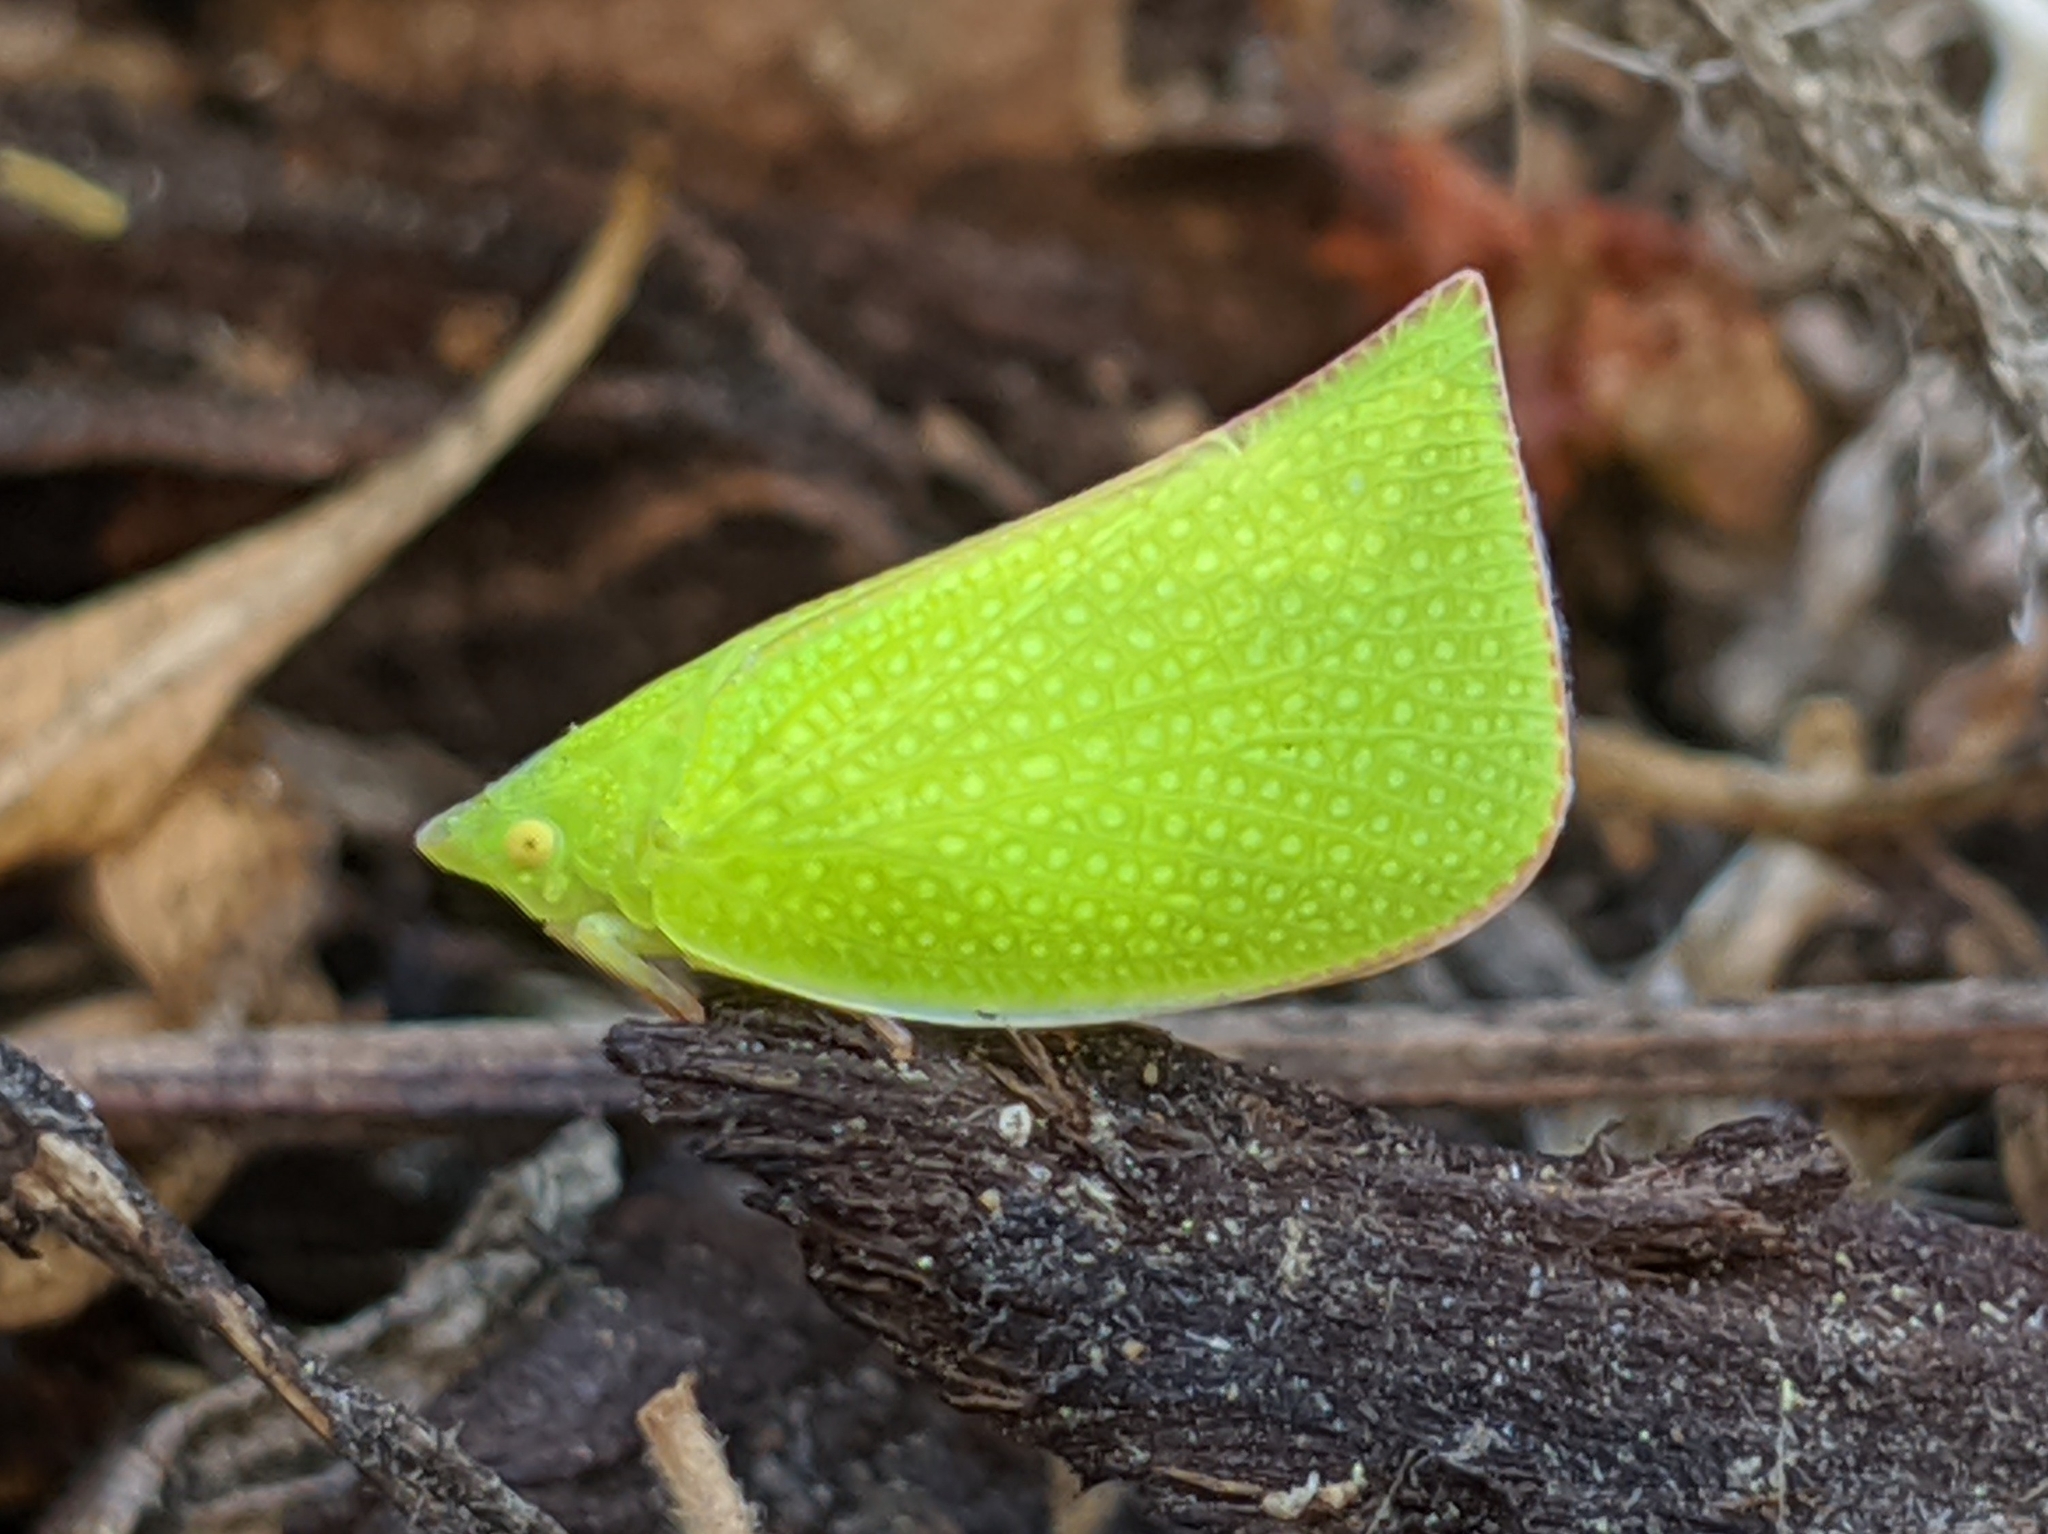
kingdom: Animalia
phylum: Arthropoda
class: Insecta
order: Hemiptera
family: Flatidae
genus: Siphanta
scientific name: Siphanta acuta
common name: Torpedo bug
